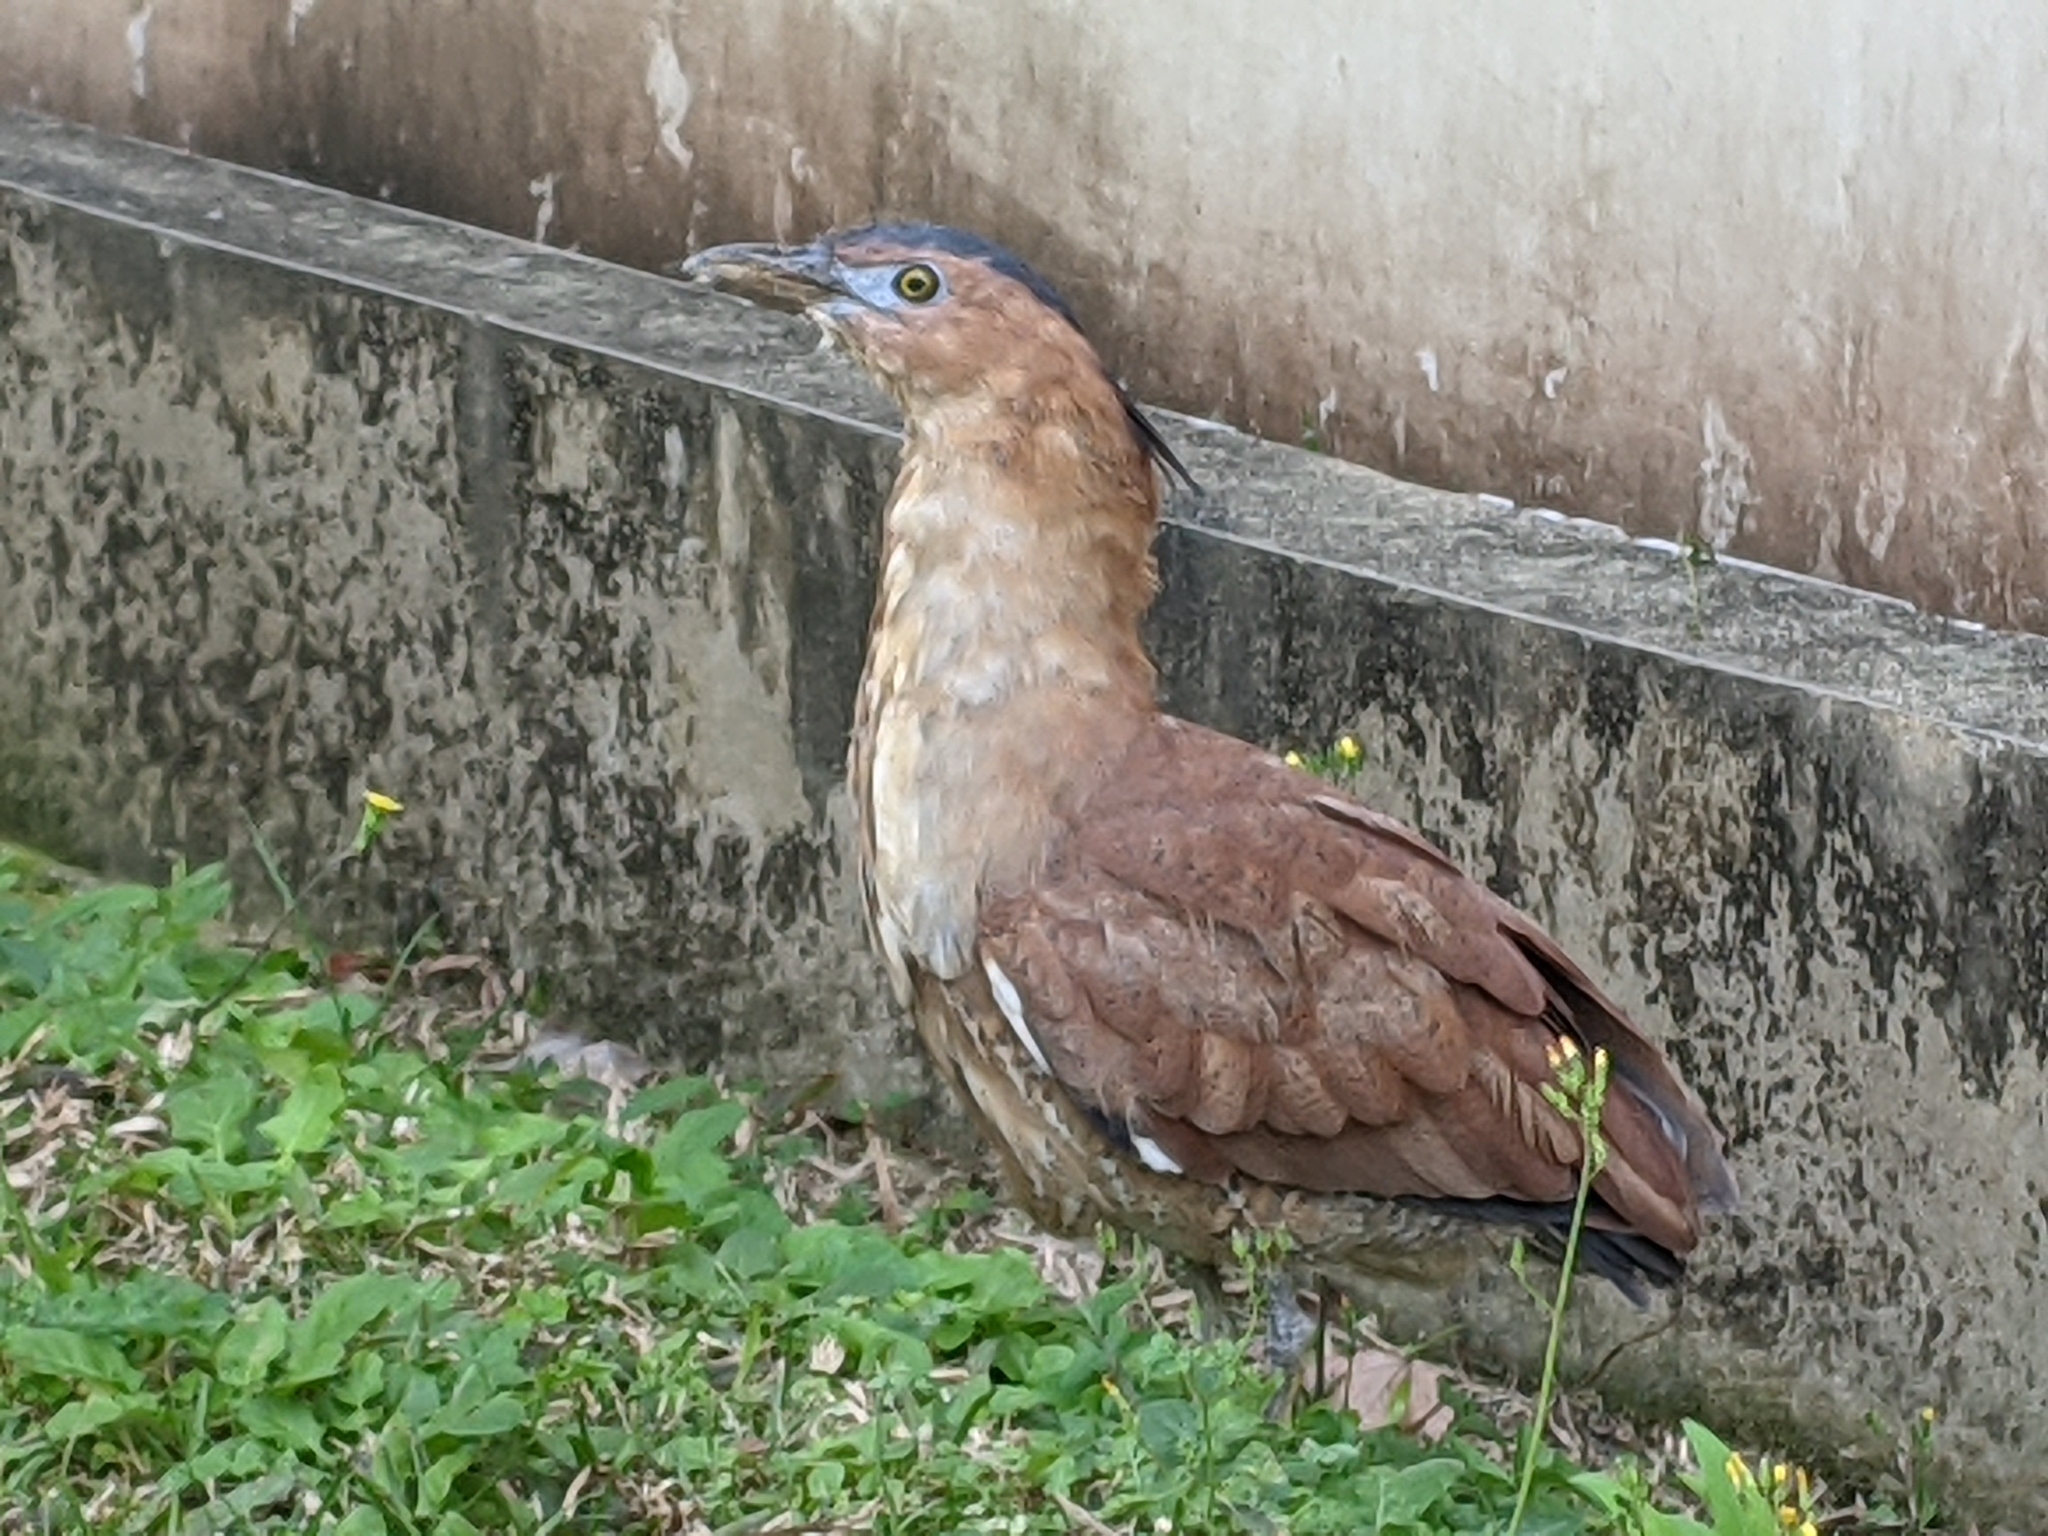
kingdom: Animalia
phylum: Chordata
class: Aves
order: Pelecaniformes
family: Ardeidae
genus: Gorsachius
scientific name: Gorsachius melanolophus
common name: Malayan night heron
